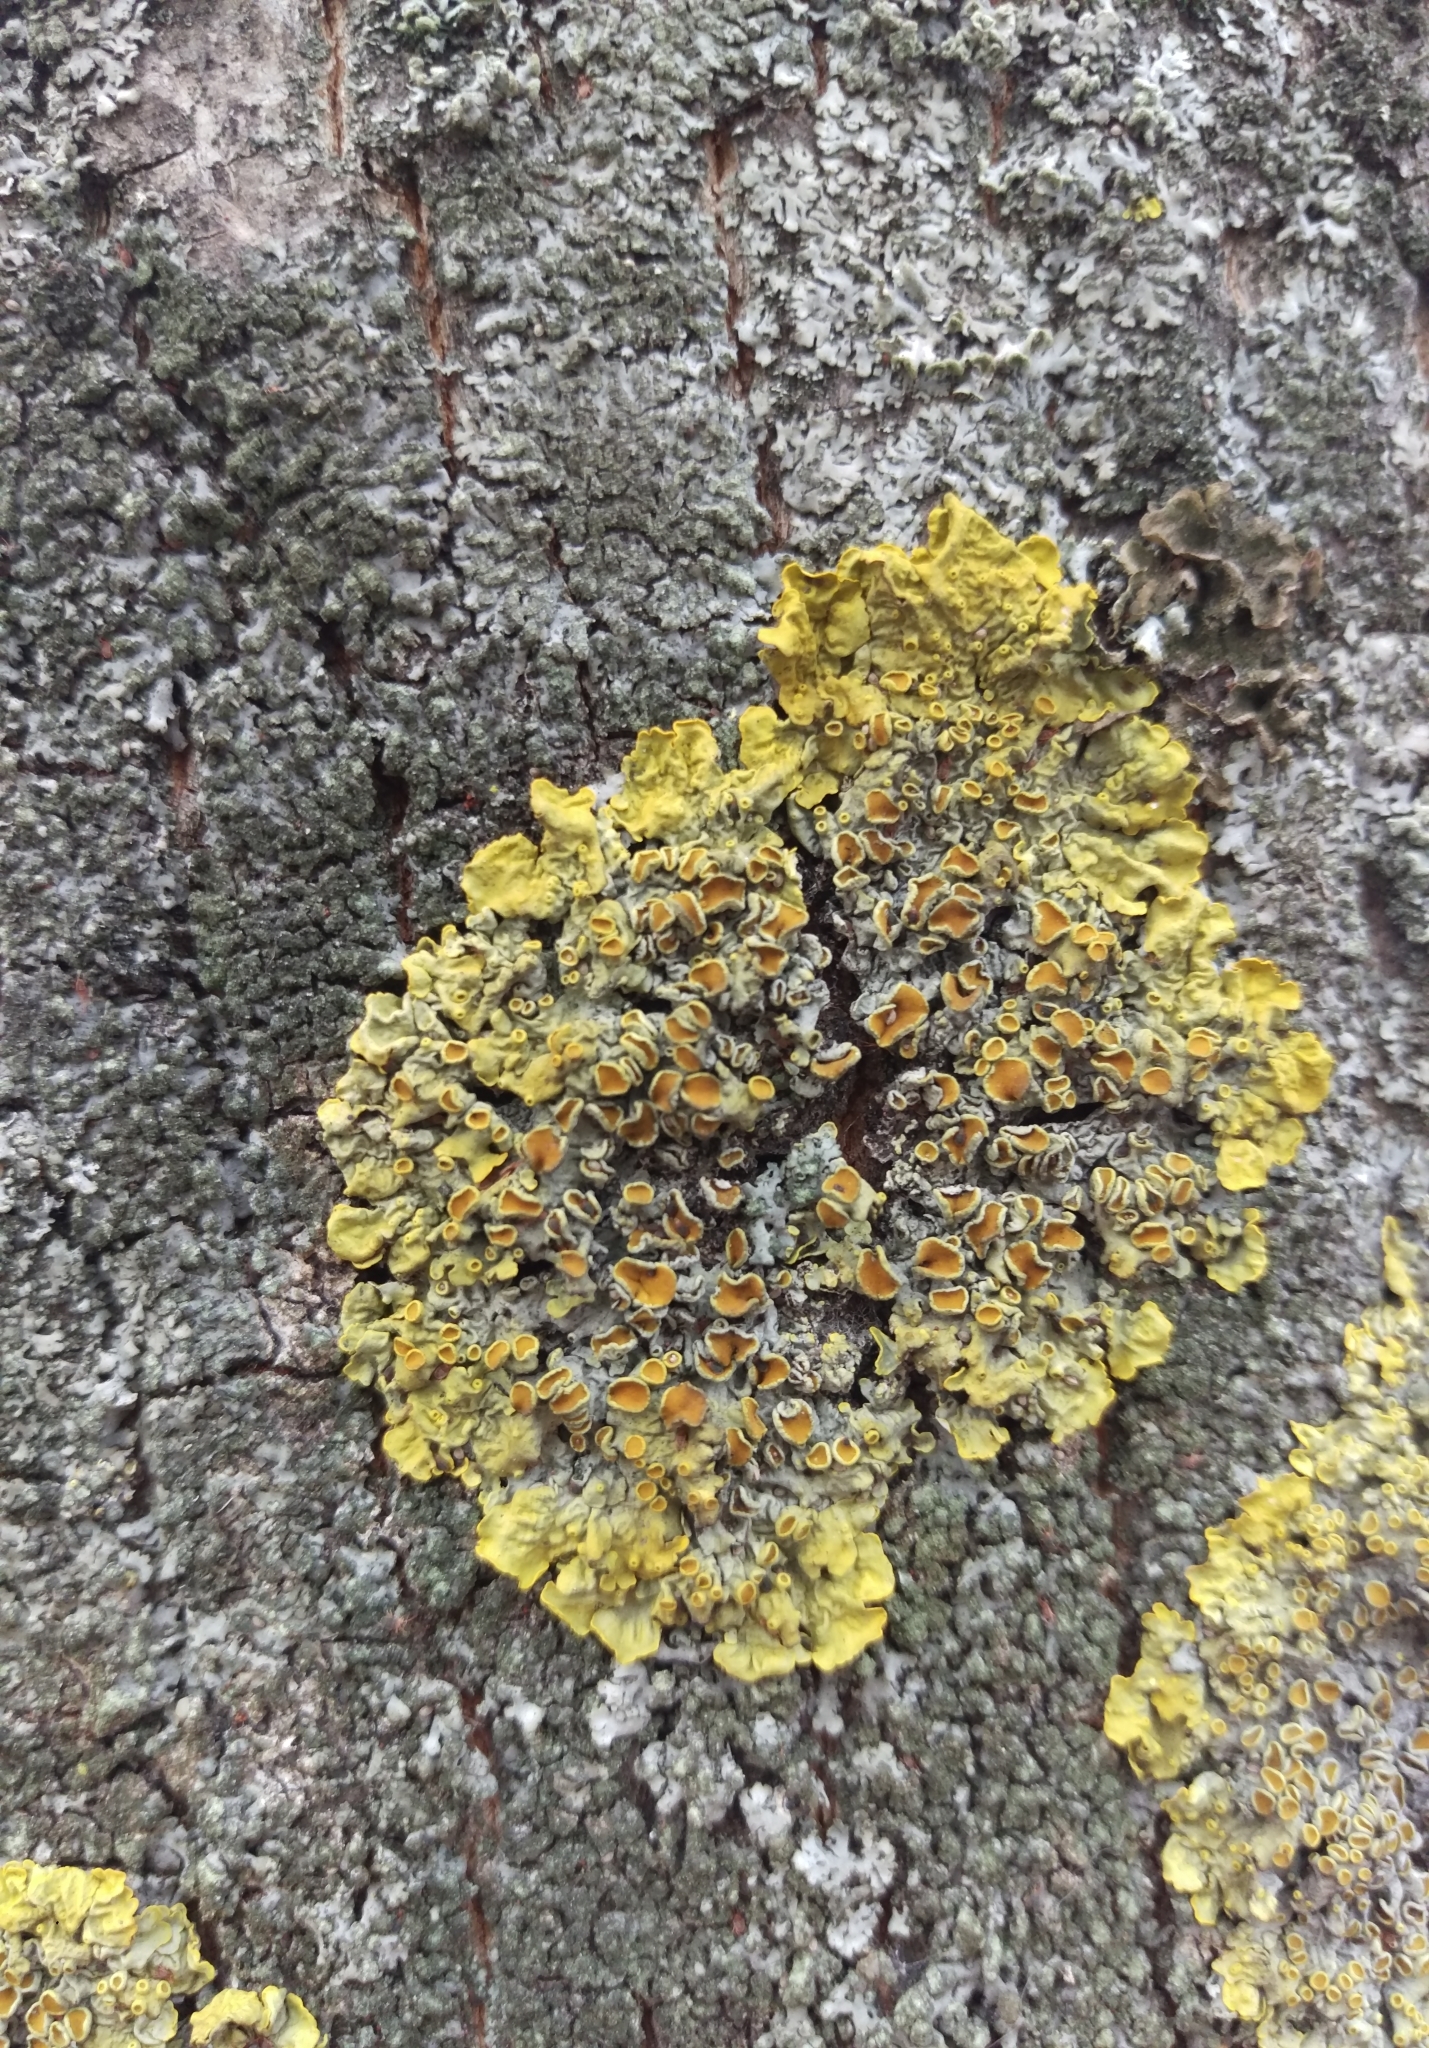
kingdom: Fungi
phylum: Ascomycota
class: Lecanoromycetes
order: Teloschistales
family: Teloschistaceae
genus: Xanthoria
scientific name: Xanthoria parietina
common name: Common orange lichen
